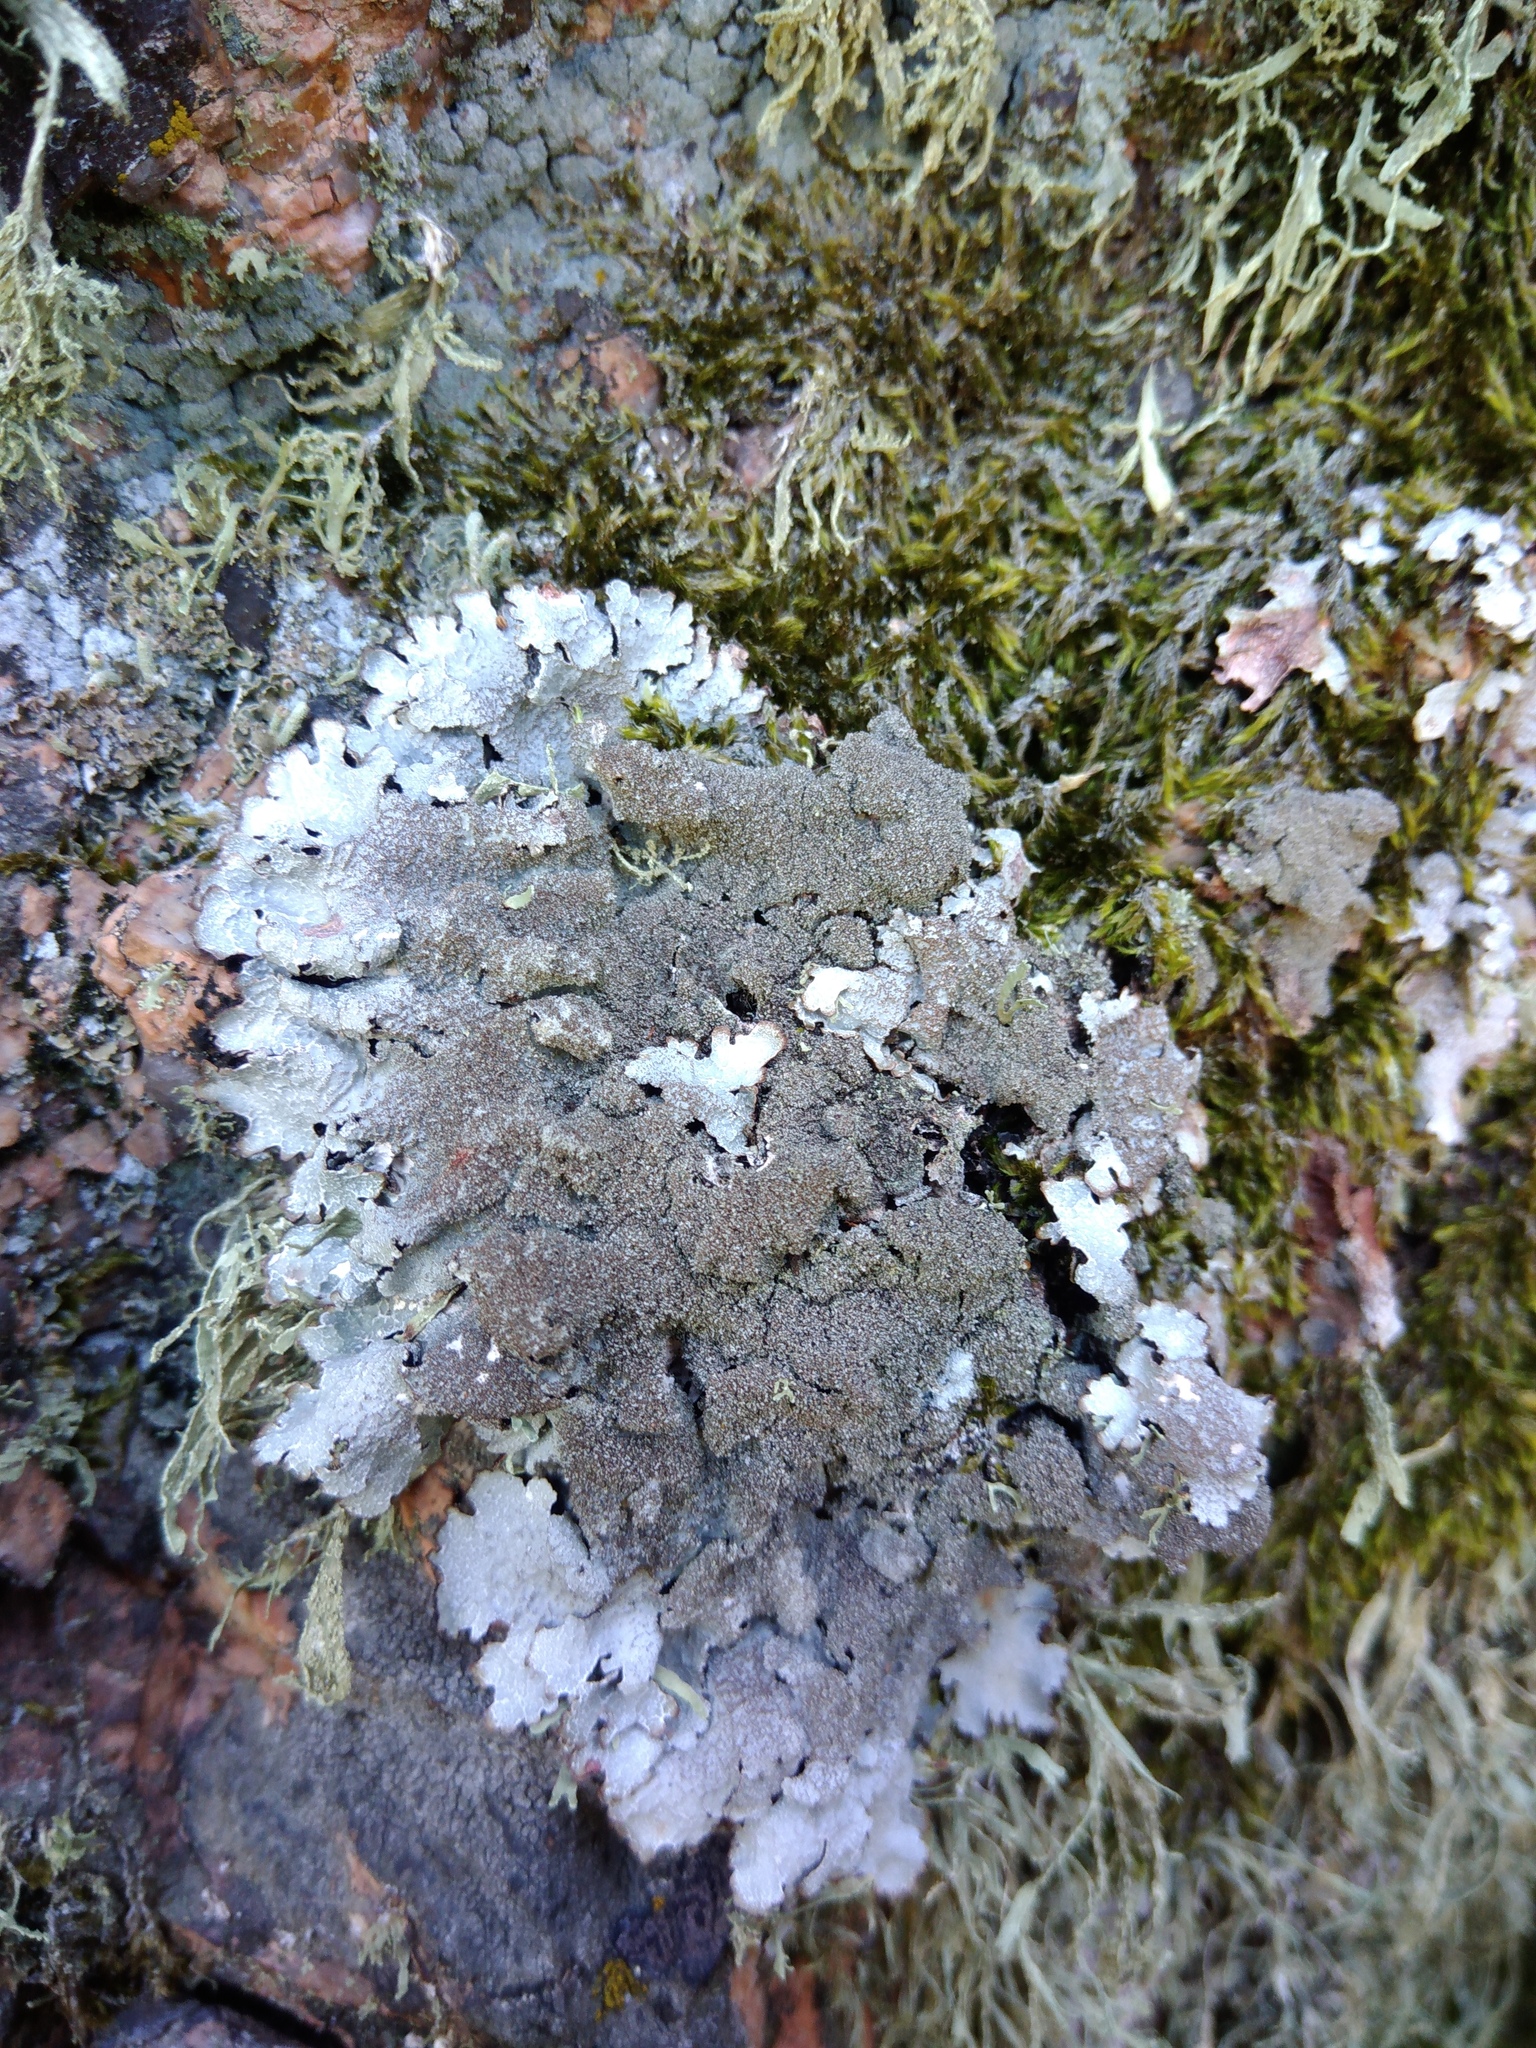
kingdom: Fungi
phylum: Ascomycota
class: Lecanoromycetes
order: Lecanorales
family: Parmeliaceae
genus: Parmelia
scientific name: Parmelia saxatilis
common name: Salted shield lichen
